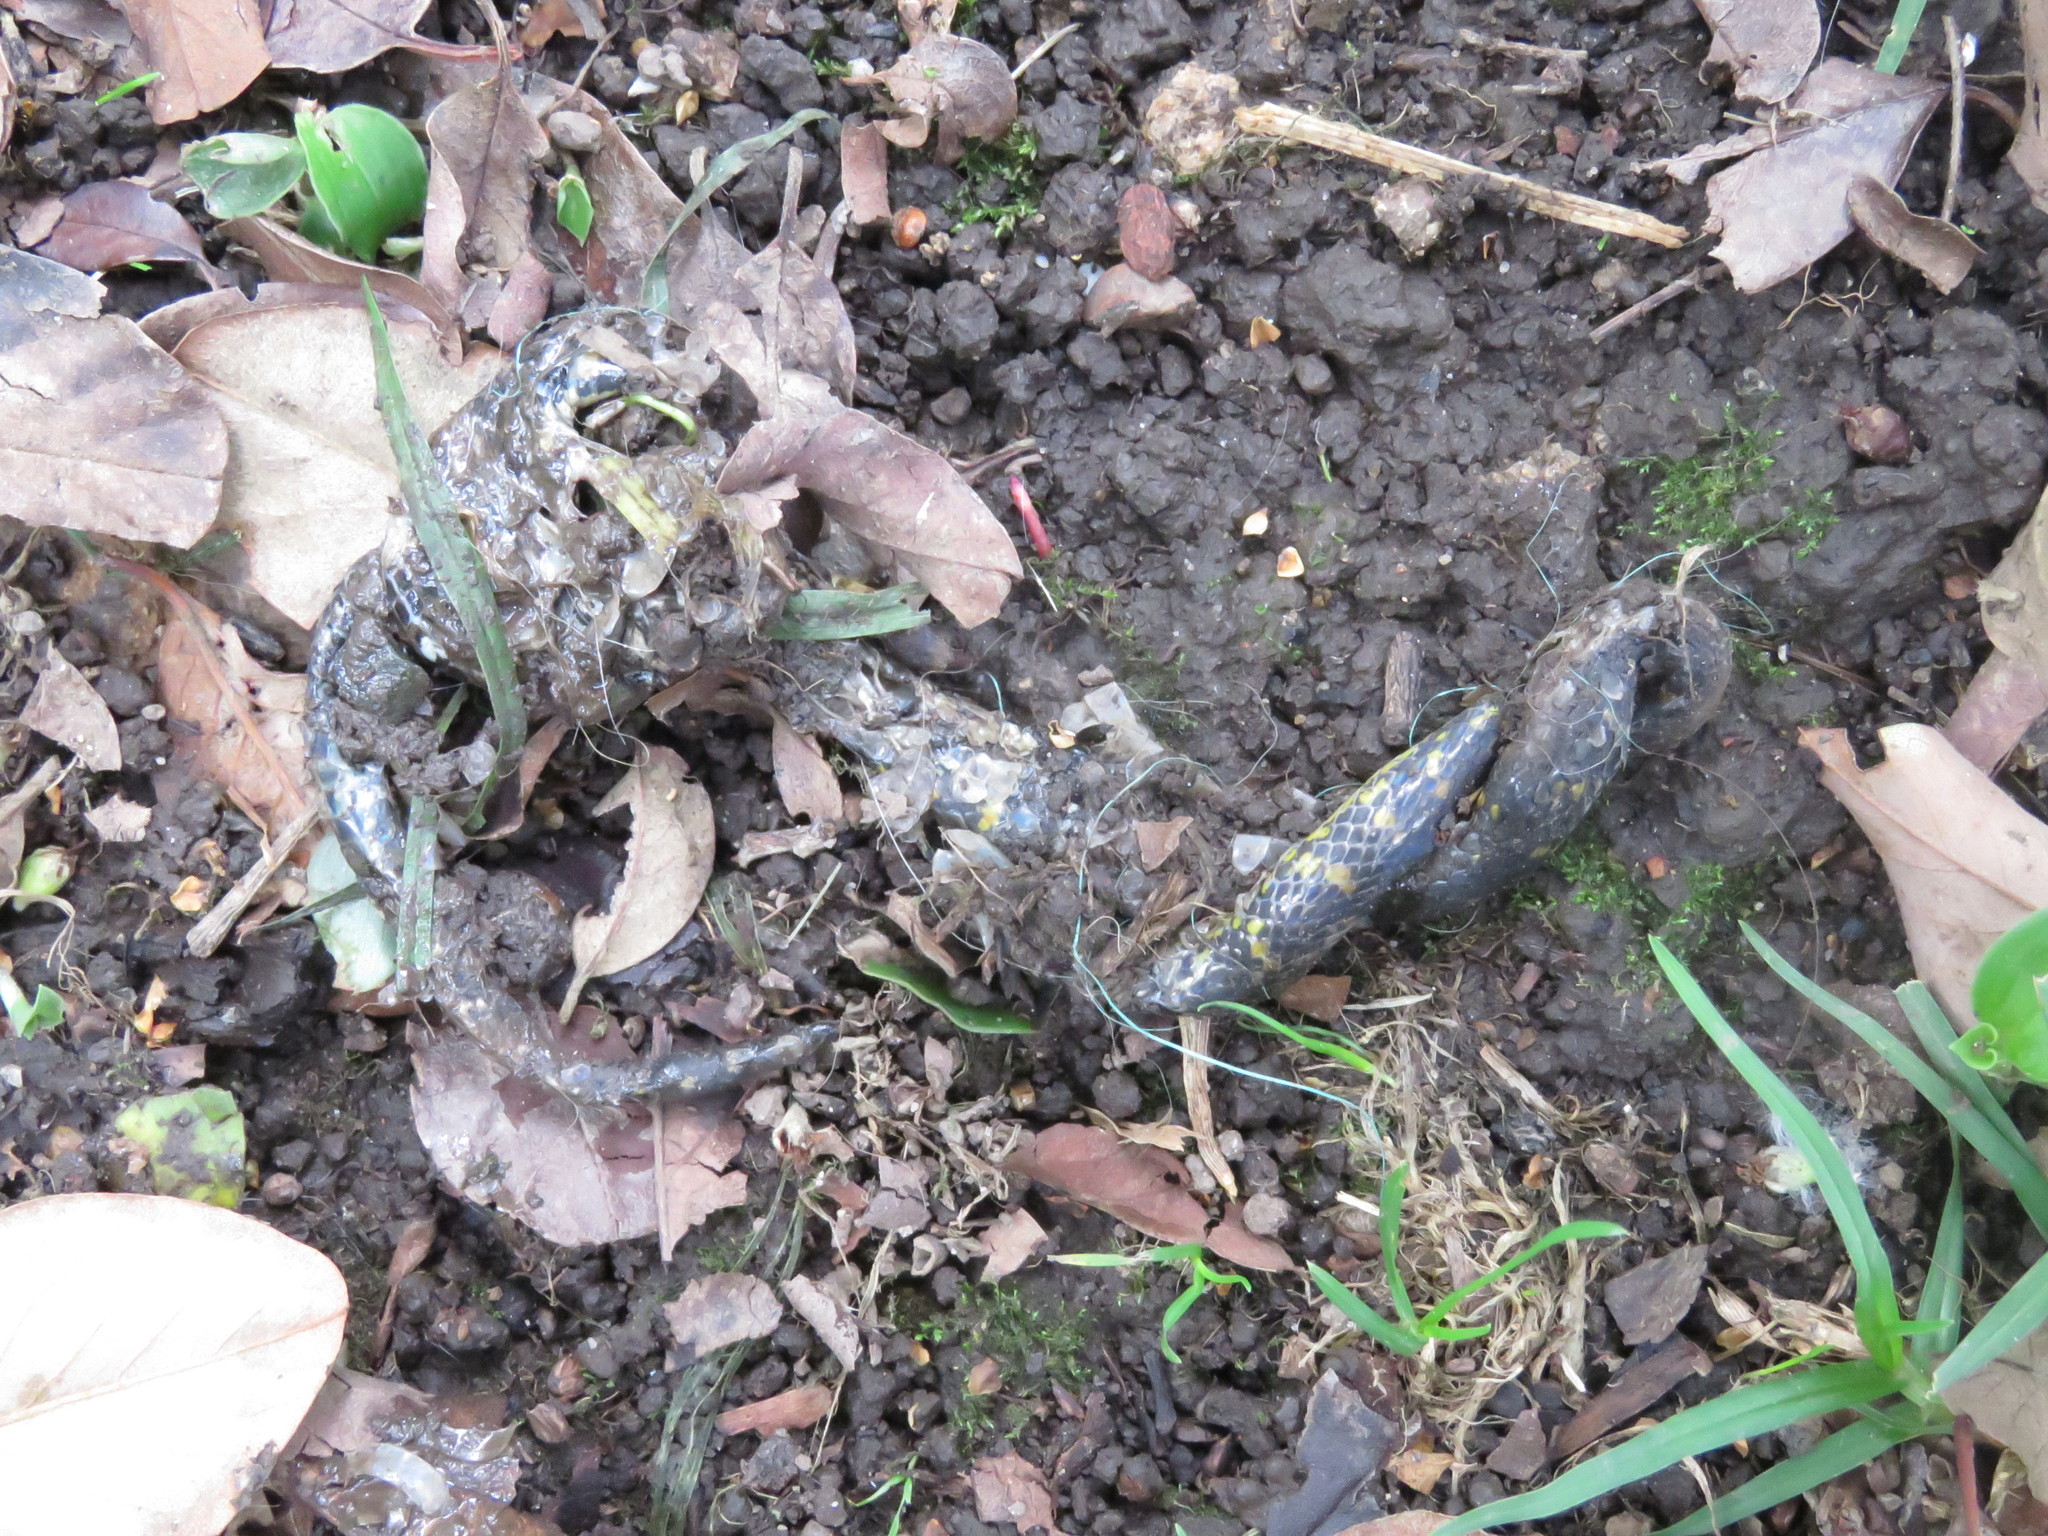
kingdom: Animalia
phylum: Chordata
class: Squamata
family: Colubridae
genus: Atractus
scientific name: Atractus crassicaudatus
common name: Thickhead ground snake
